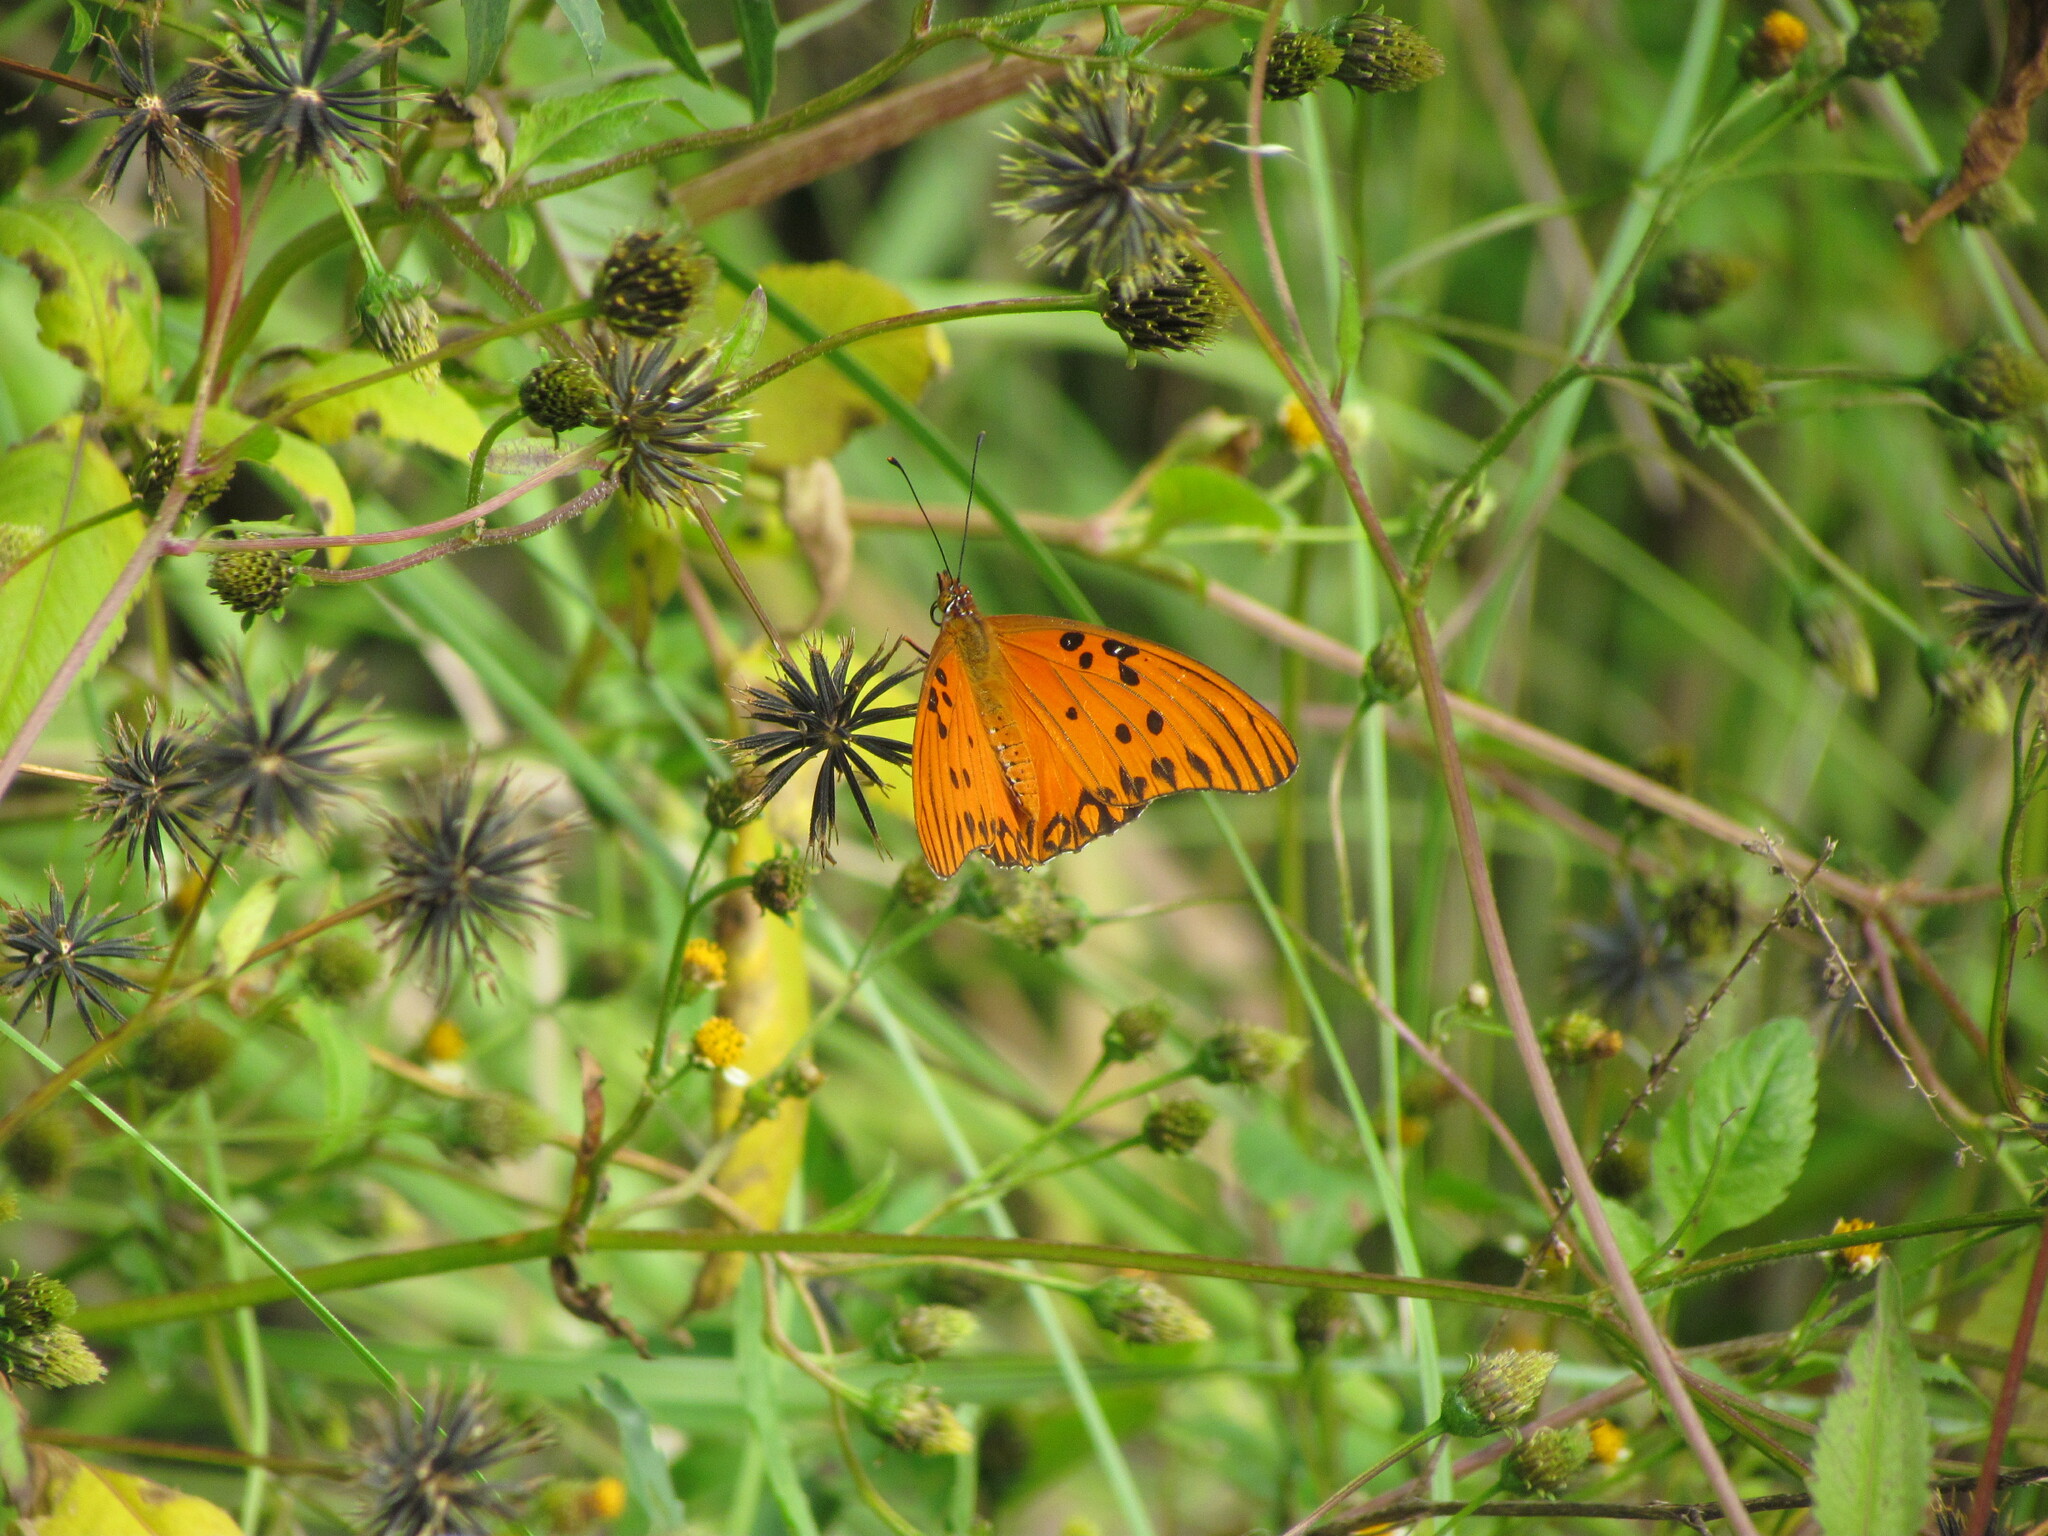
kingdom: Animalia
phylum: Arthropoda
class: Insecta
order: Lepidoptera
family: Nymphalidae
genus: Dione
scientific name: Dione vanillae
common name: Gulf fritillary
